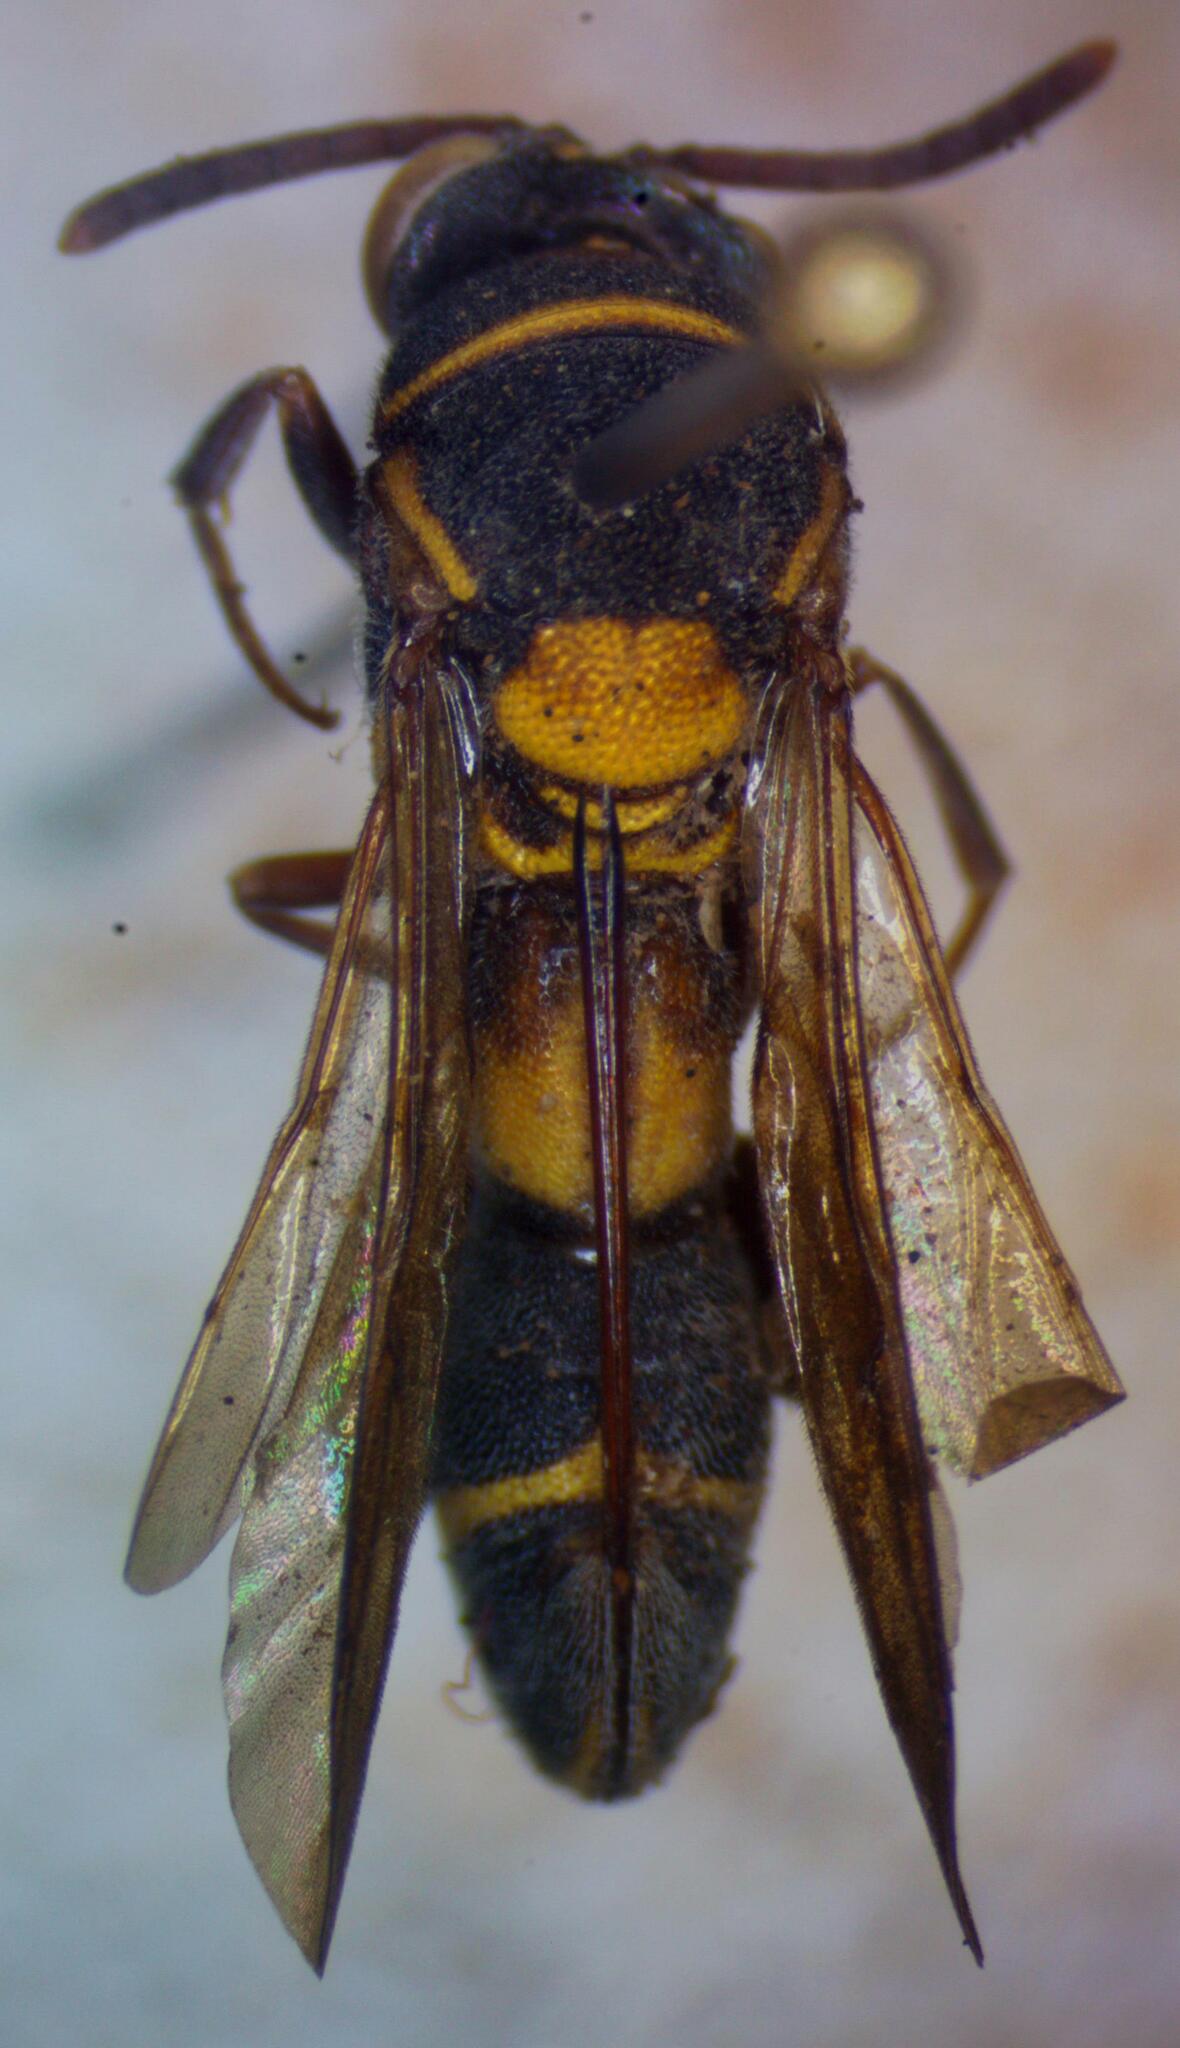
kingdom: Animalia
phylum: Arthropoda
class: Insecta
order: Hymenoptera
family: Leucospidae
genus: Leucospis
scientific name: Leucospis latifrons
